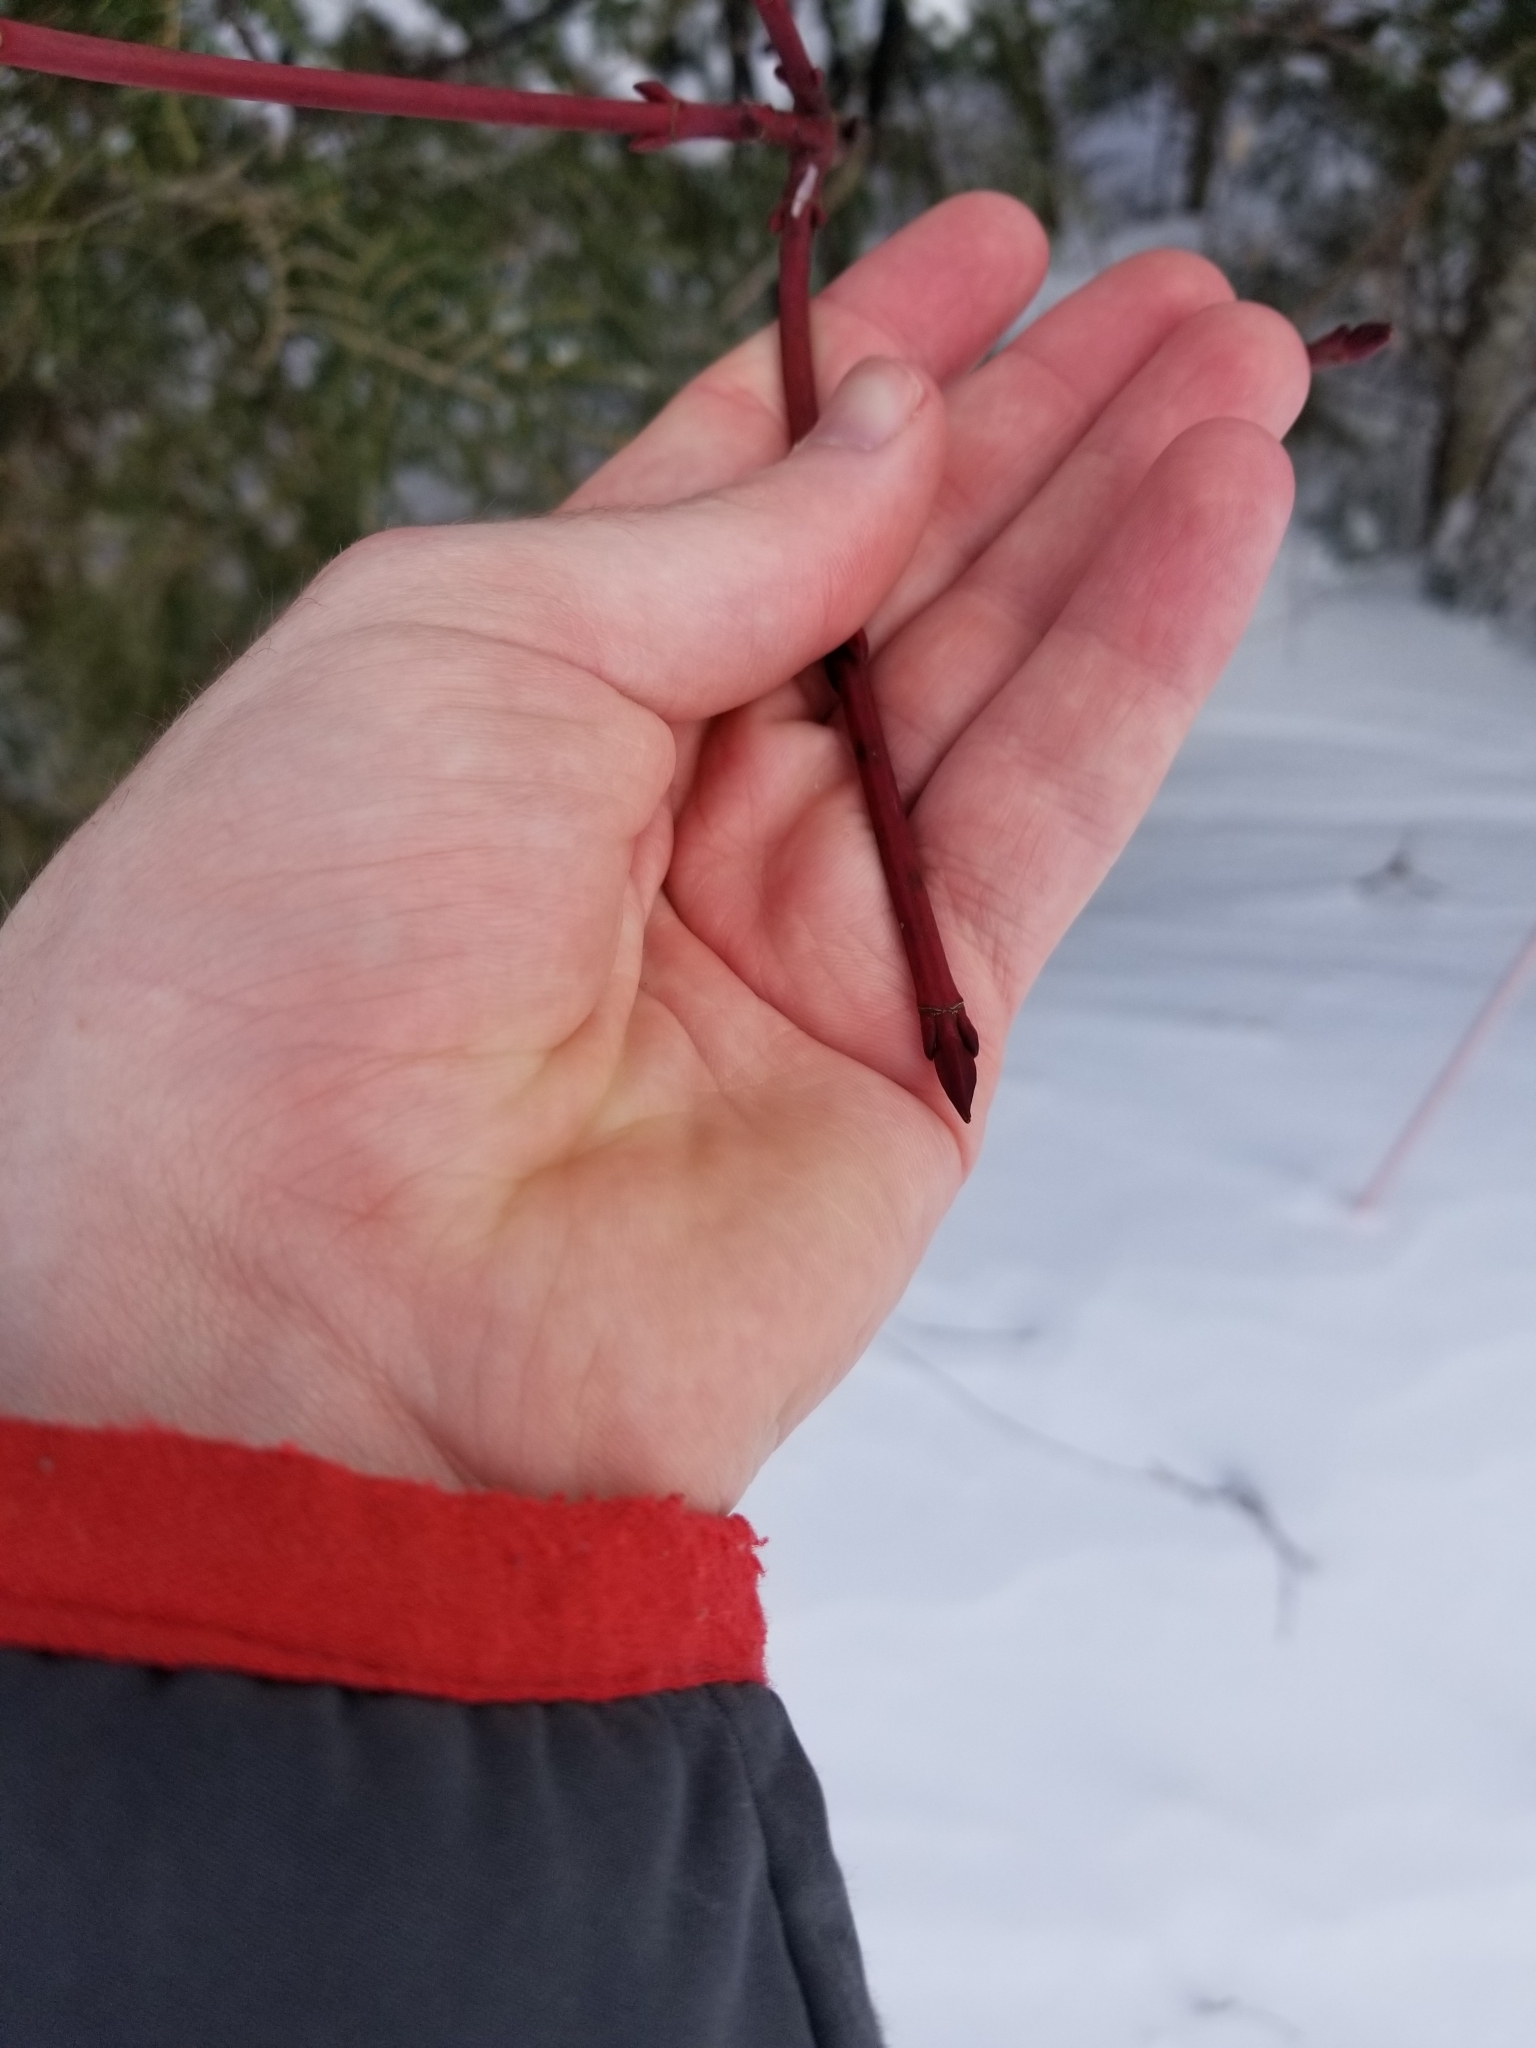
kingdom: Plantae
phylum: Tracheophyta
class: Magnoliopsida
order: Sapindales
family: Sapindaceae
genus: Acer
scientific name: Acer pensylvanicum
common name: Moosewood
